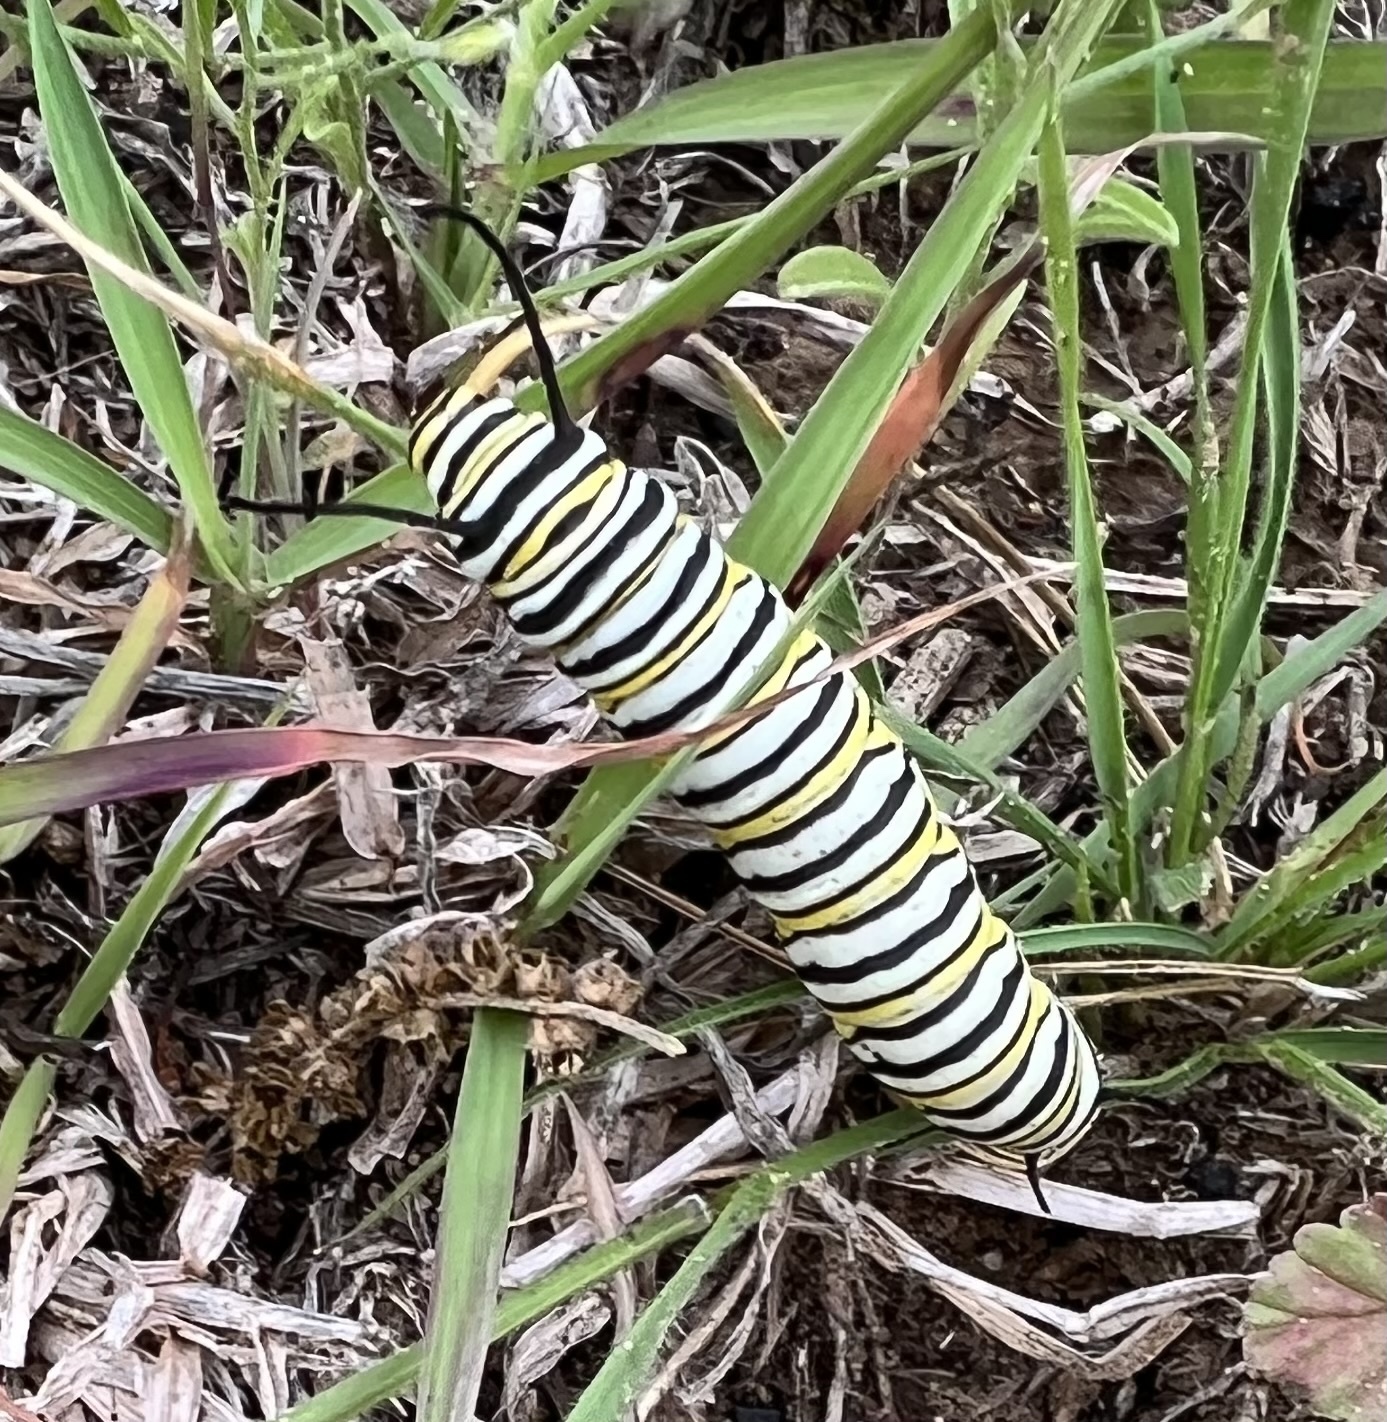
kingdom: Animalia
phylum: Arthropoda
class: Insecta
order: Lepidoptera
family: Nymphalidae
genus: Danaus
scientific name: Danaus plexippus
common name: Monarch
